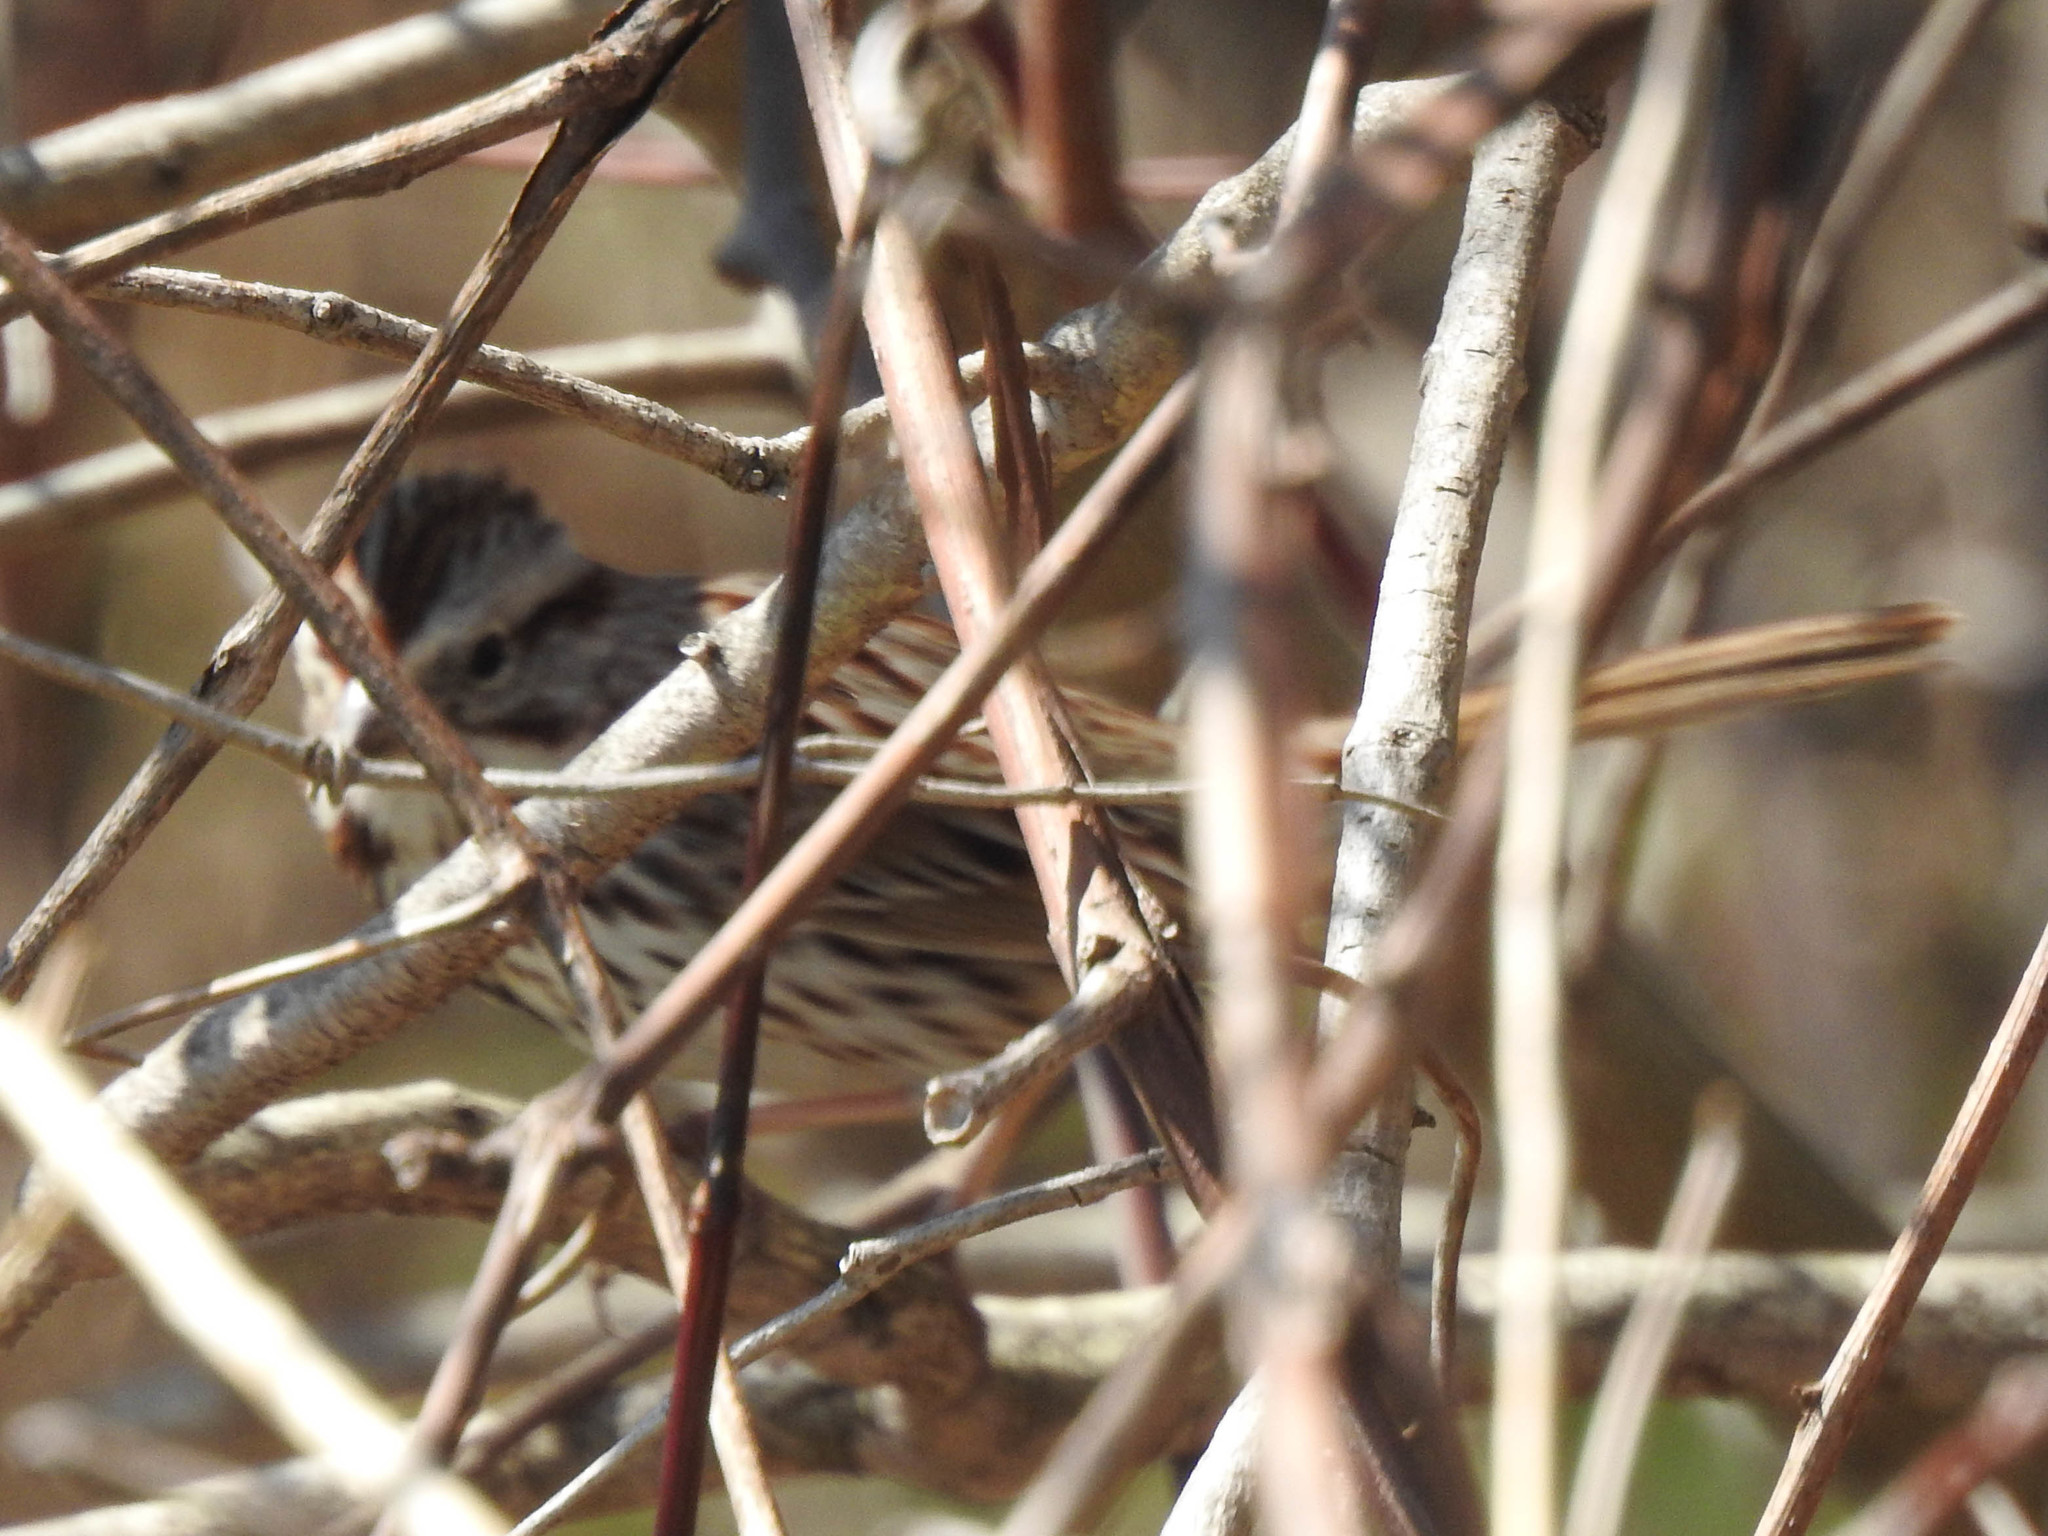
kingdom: Animalia
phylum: Chordata
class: Aves
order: Passeriformes
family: Passerellidae
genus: Melospiza
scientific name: Melospiza melodia
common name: Song sparrow
